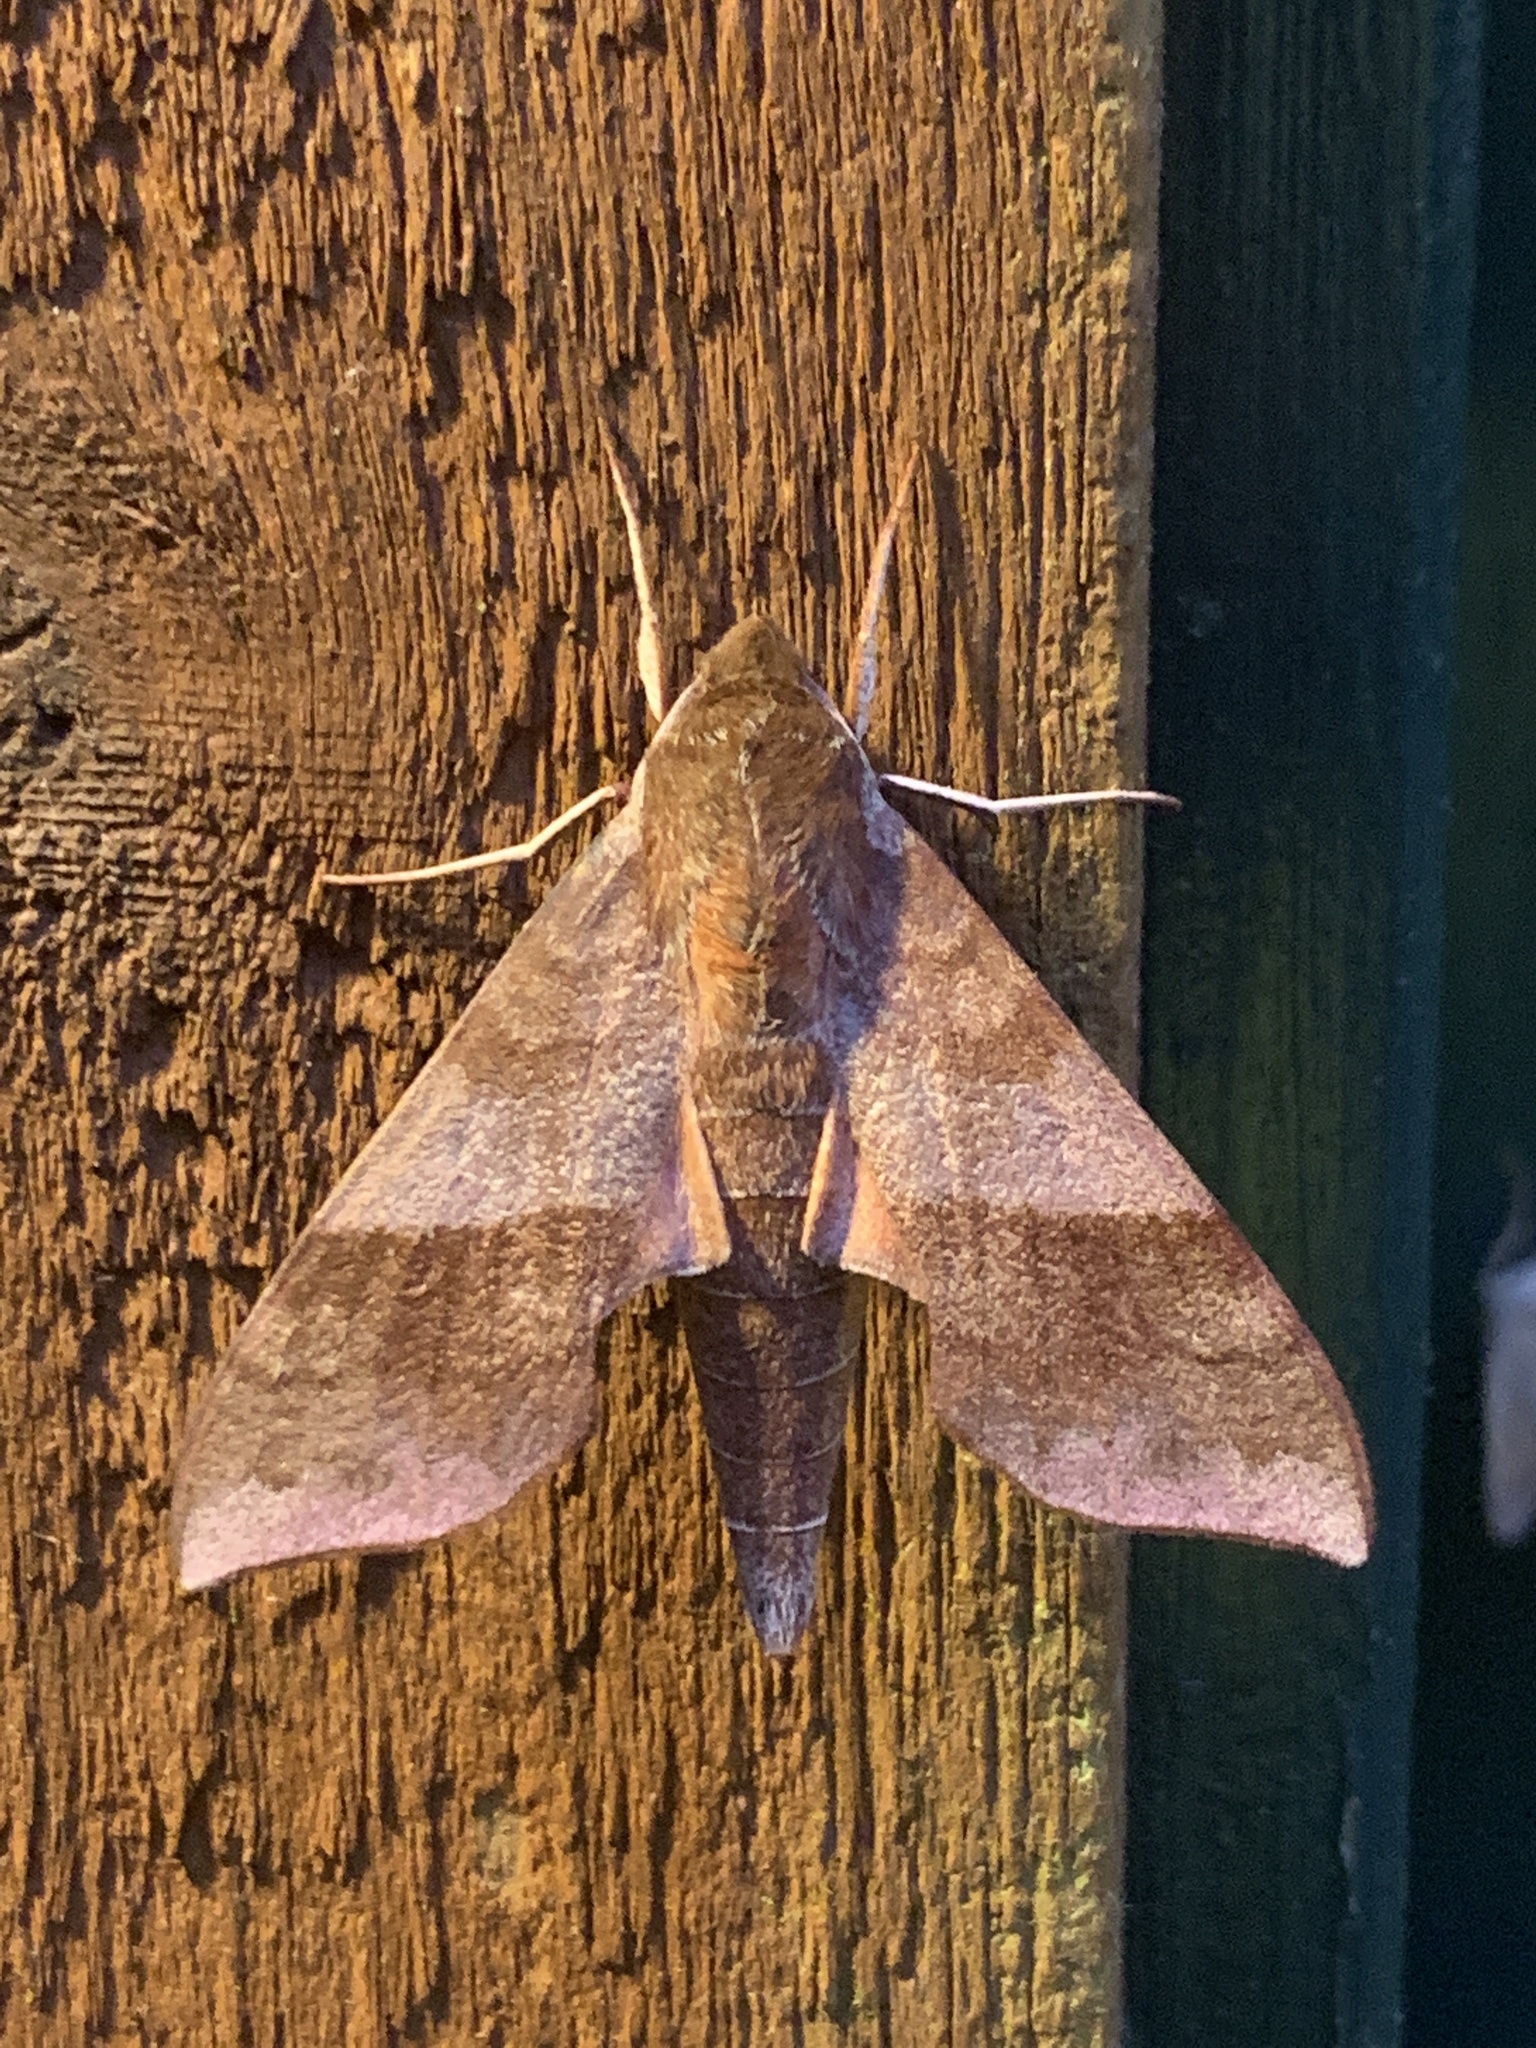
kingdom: Animalia
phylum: Arthropoda
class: Insecta
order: Lepidoptera
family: Sphingidae
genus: Darapsa
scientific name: Darapsa choerilus
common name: Azalea sphinx
